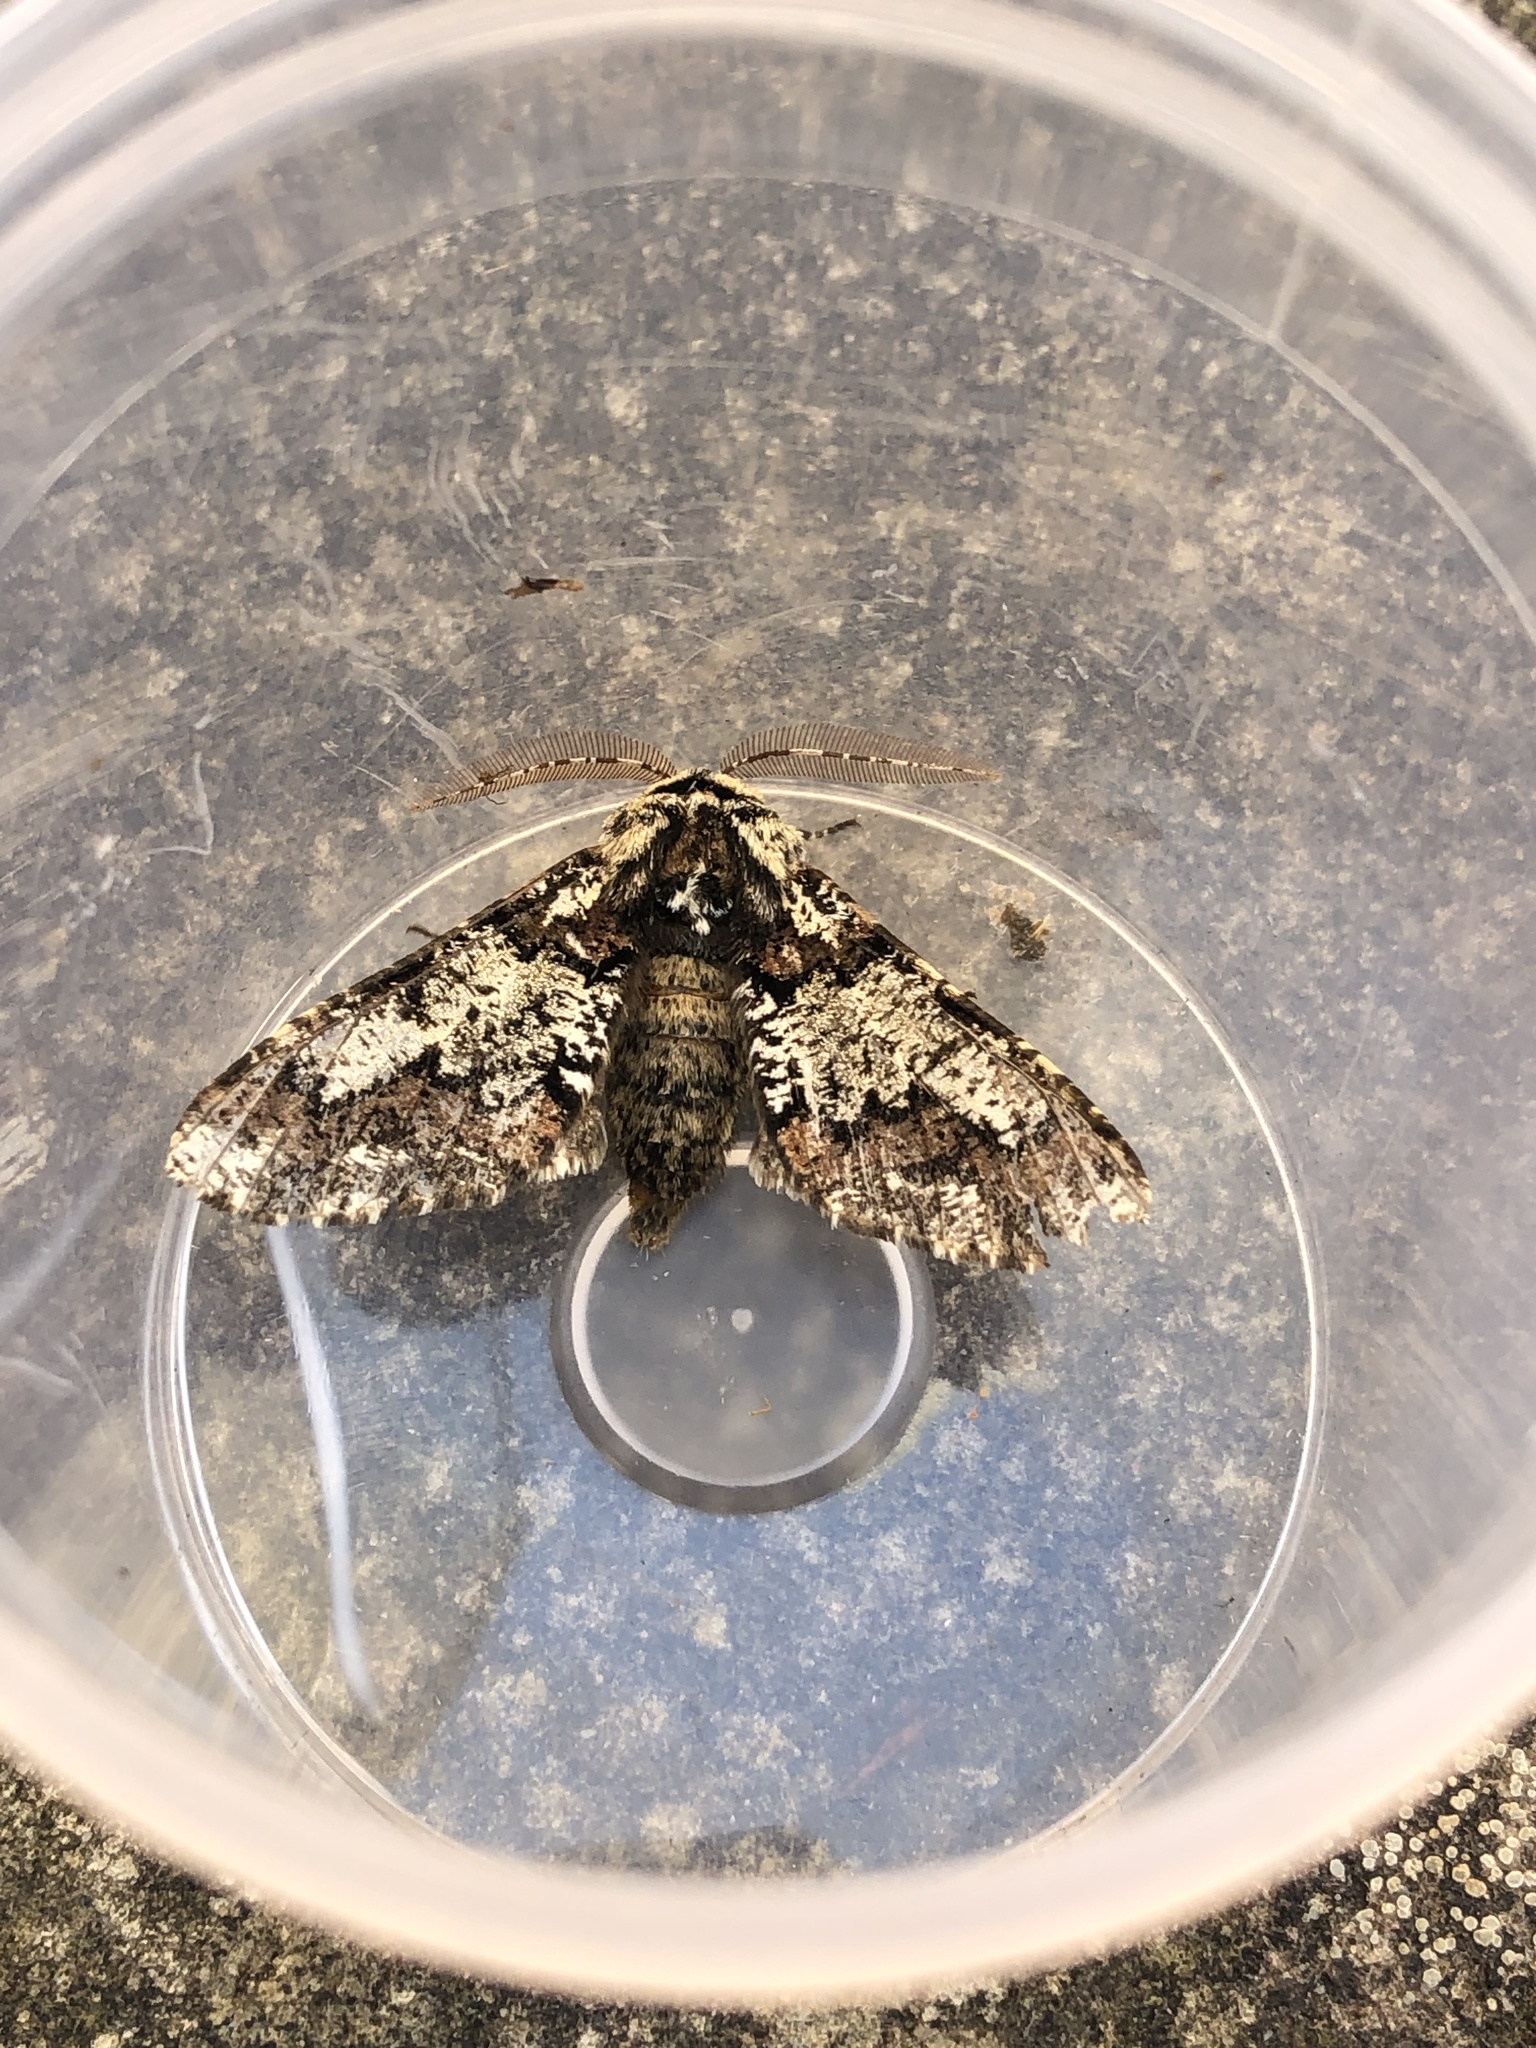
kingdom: Animalia
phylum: Arthropoda
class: Insecta
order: Lepidoptera
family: Geometridae
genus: Biston
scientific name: Biston strataria
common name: Oak beauty
